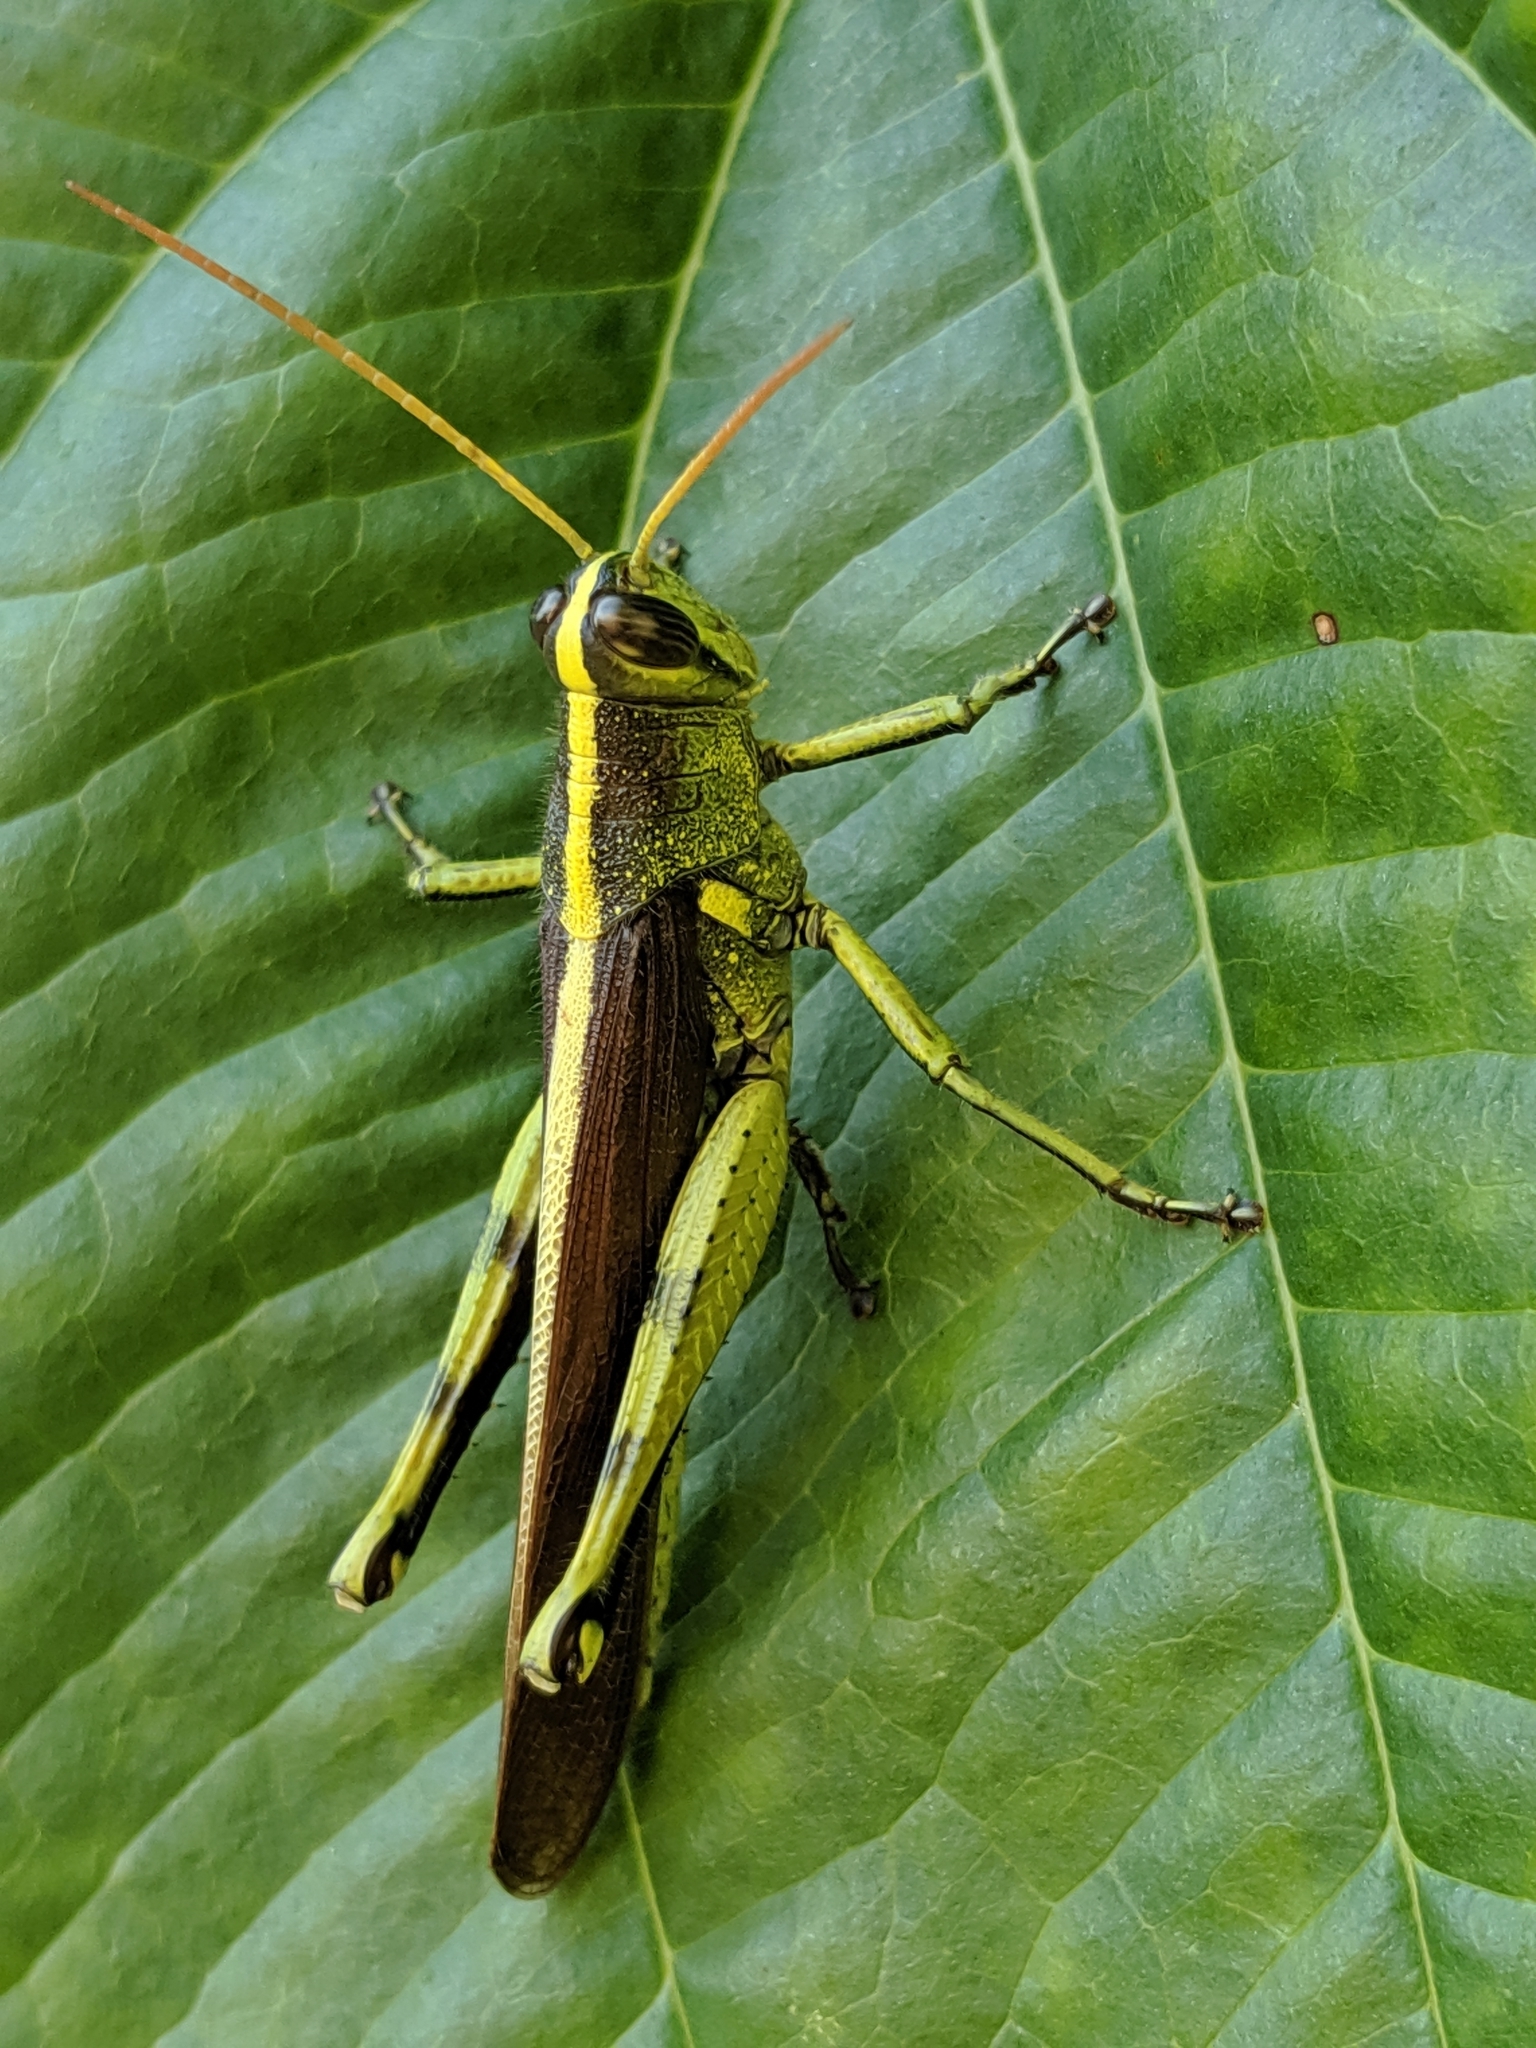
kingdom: Animalia
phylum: Arthropoda
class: Insecta
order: Orthoptera
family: Acrididae
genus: Schistocerca
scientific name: Schistocerca obscura
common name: Obscure bird grasshopper
